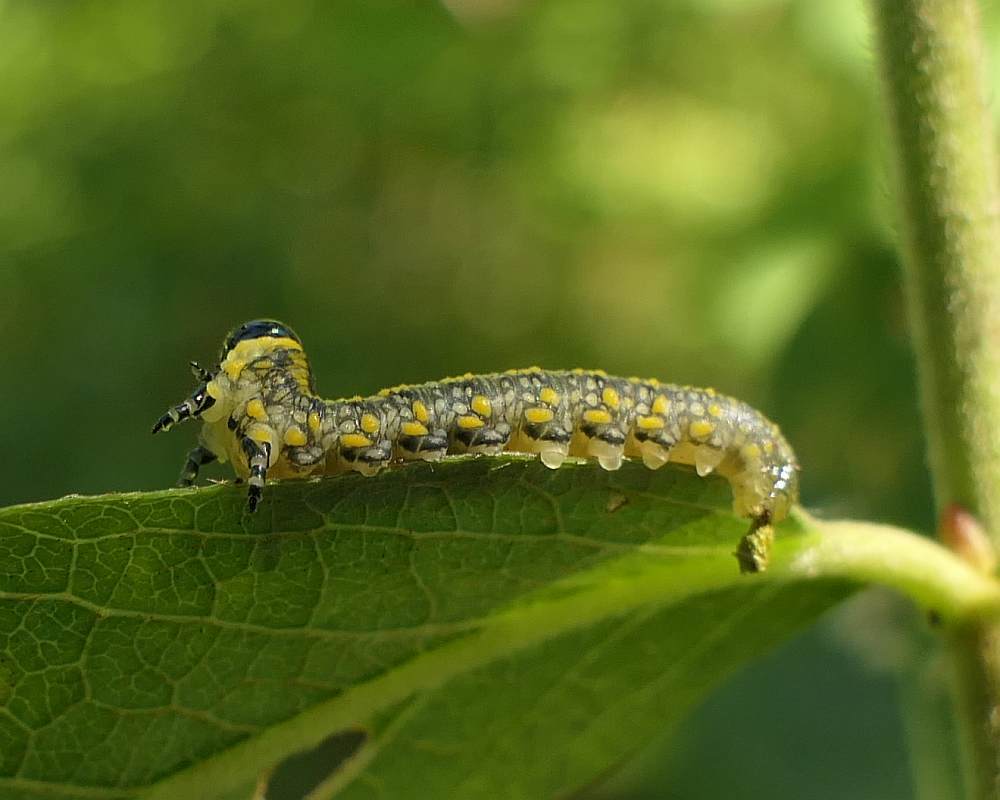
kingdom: Animalia
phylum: Arthropoda
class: Insecta
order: Hymenoptera
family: Diprionidae
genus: Diprion
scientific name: Diprion similis
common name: Pine sawfly
